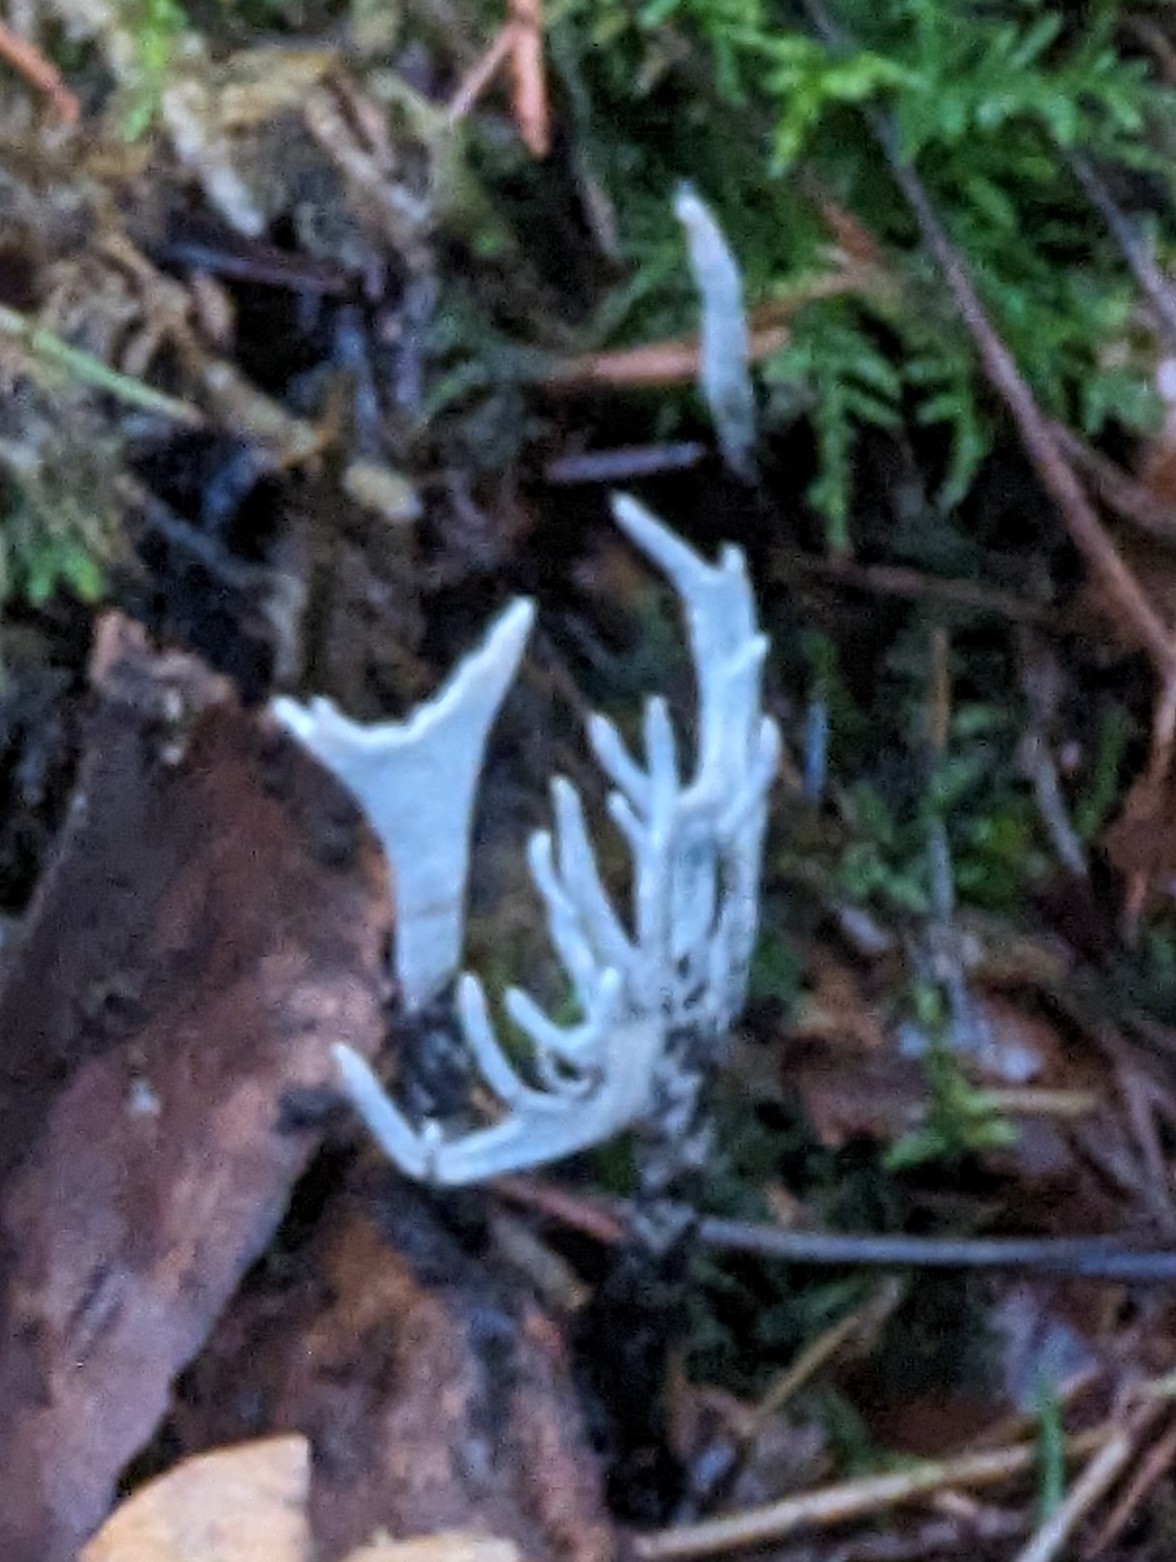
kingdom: Fungi
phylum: Ascomycota
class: Sordariomycetes
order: Xylariales
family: Xylariaceae
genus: Xylaria
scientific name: Xylaria hypoxylon
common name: Candle-snuff fungus
